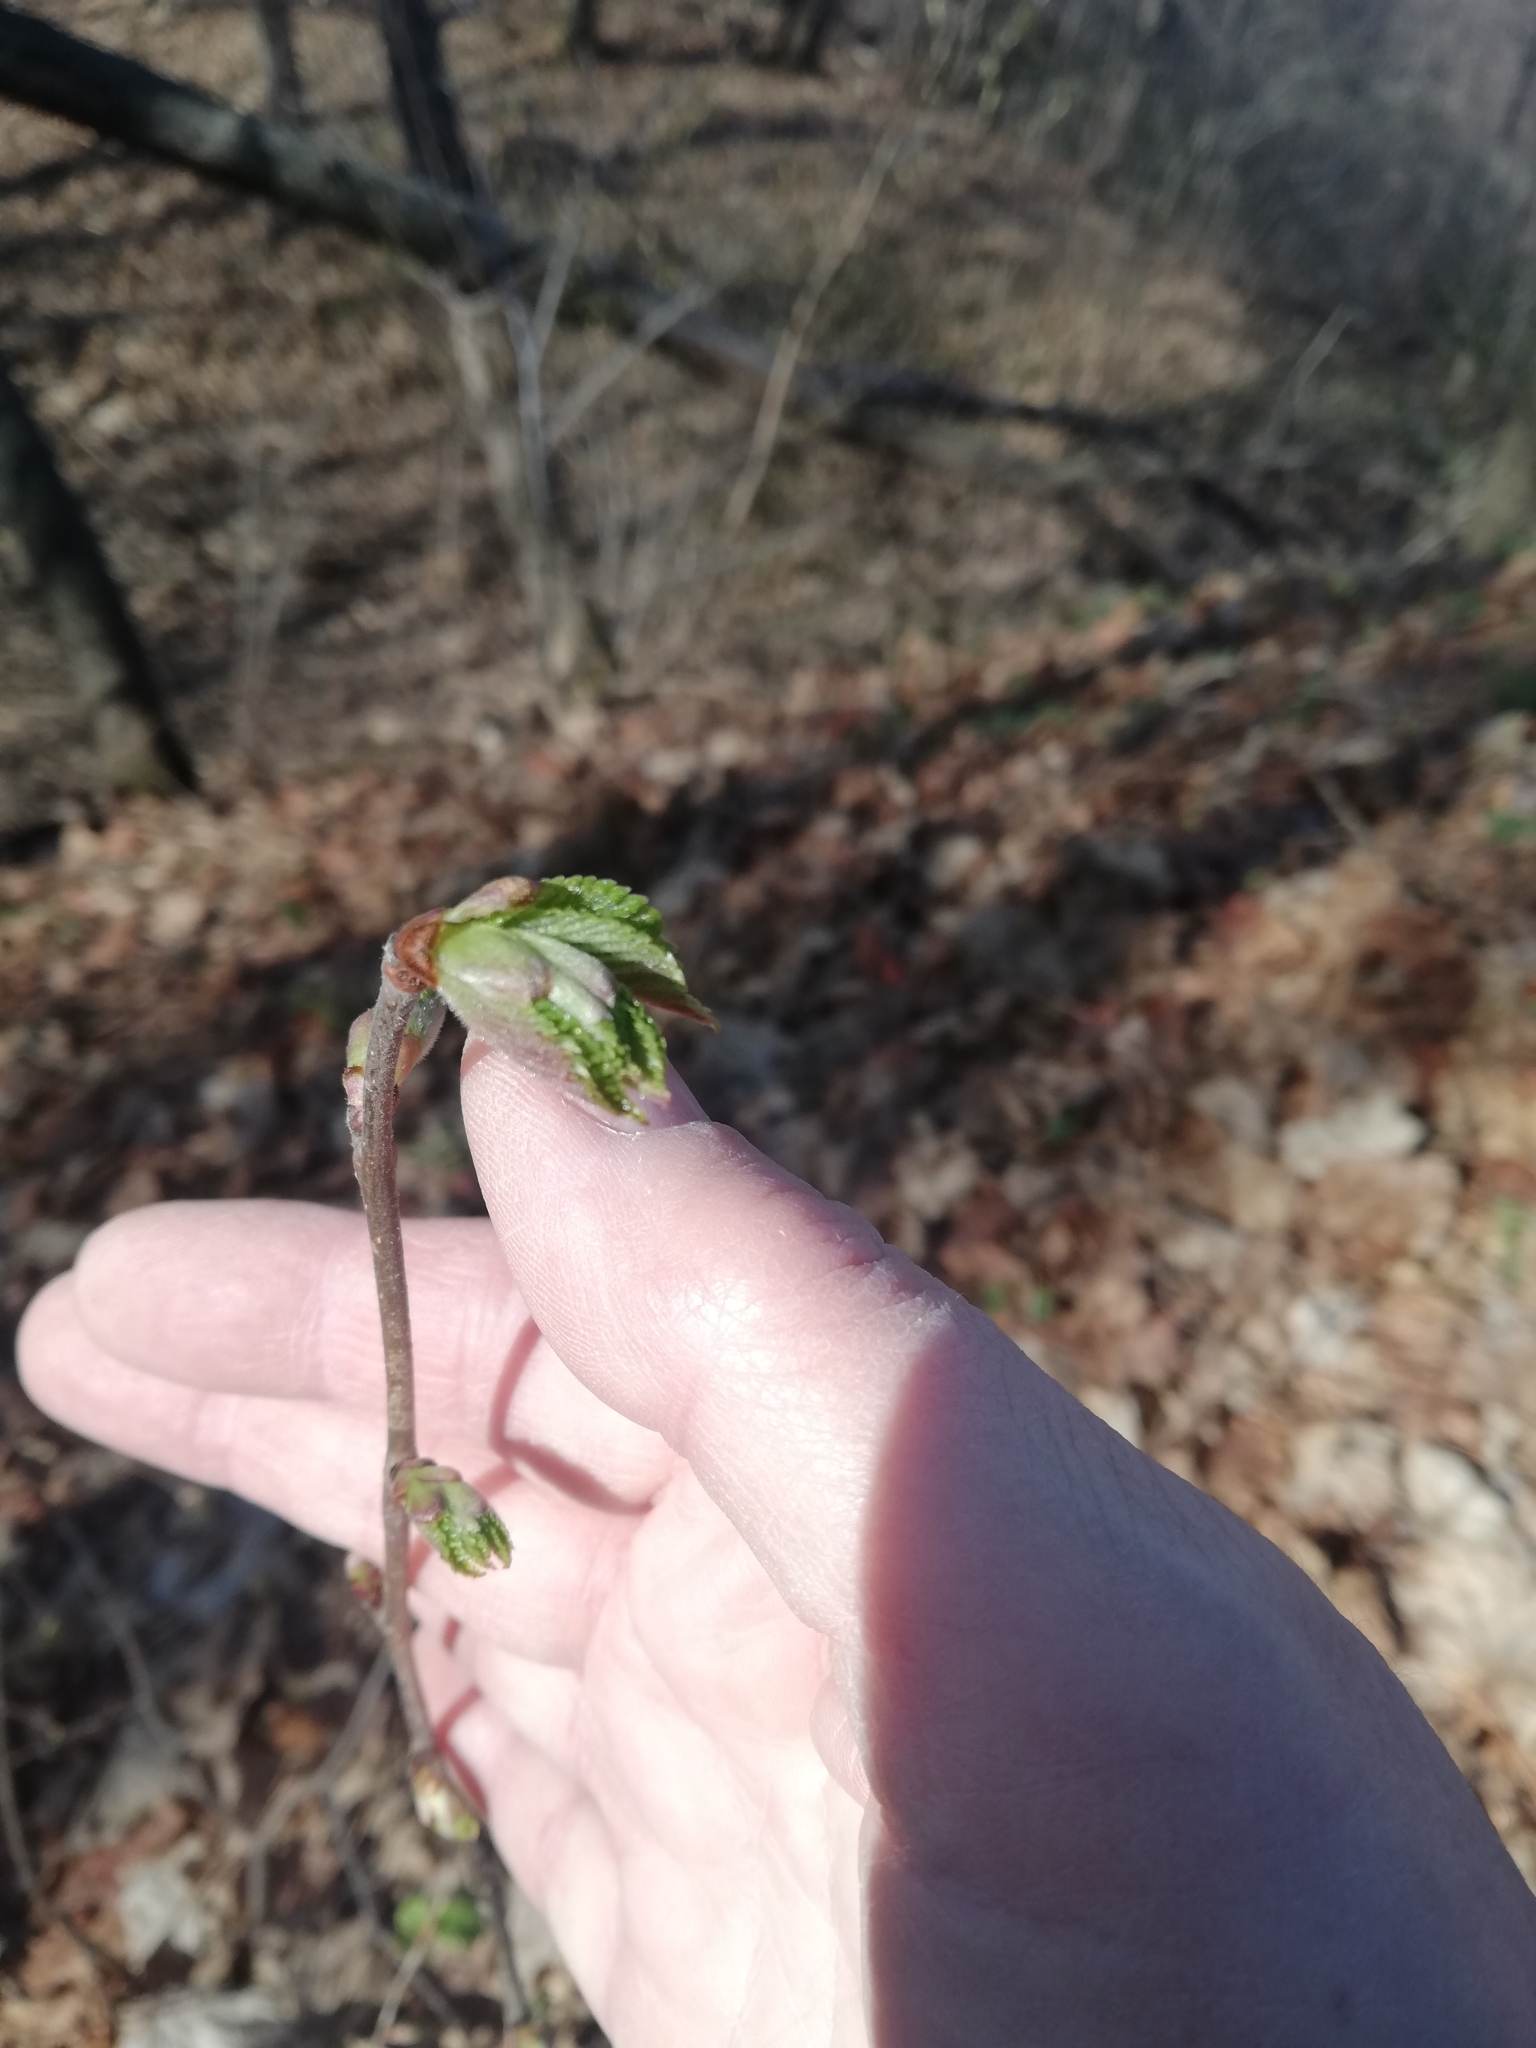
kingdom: Plantae
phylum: Tracheophyta
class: Magnoliopsida
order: Fagales
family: Betulaceae
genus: Corylus
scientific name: Corylus avellana
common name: European hazel
